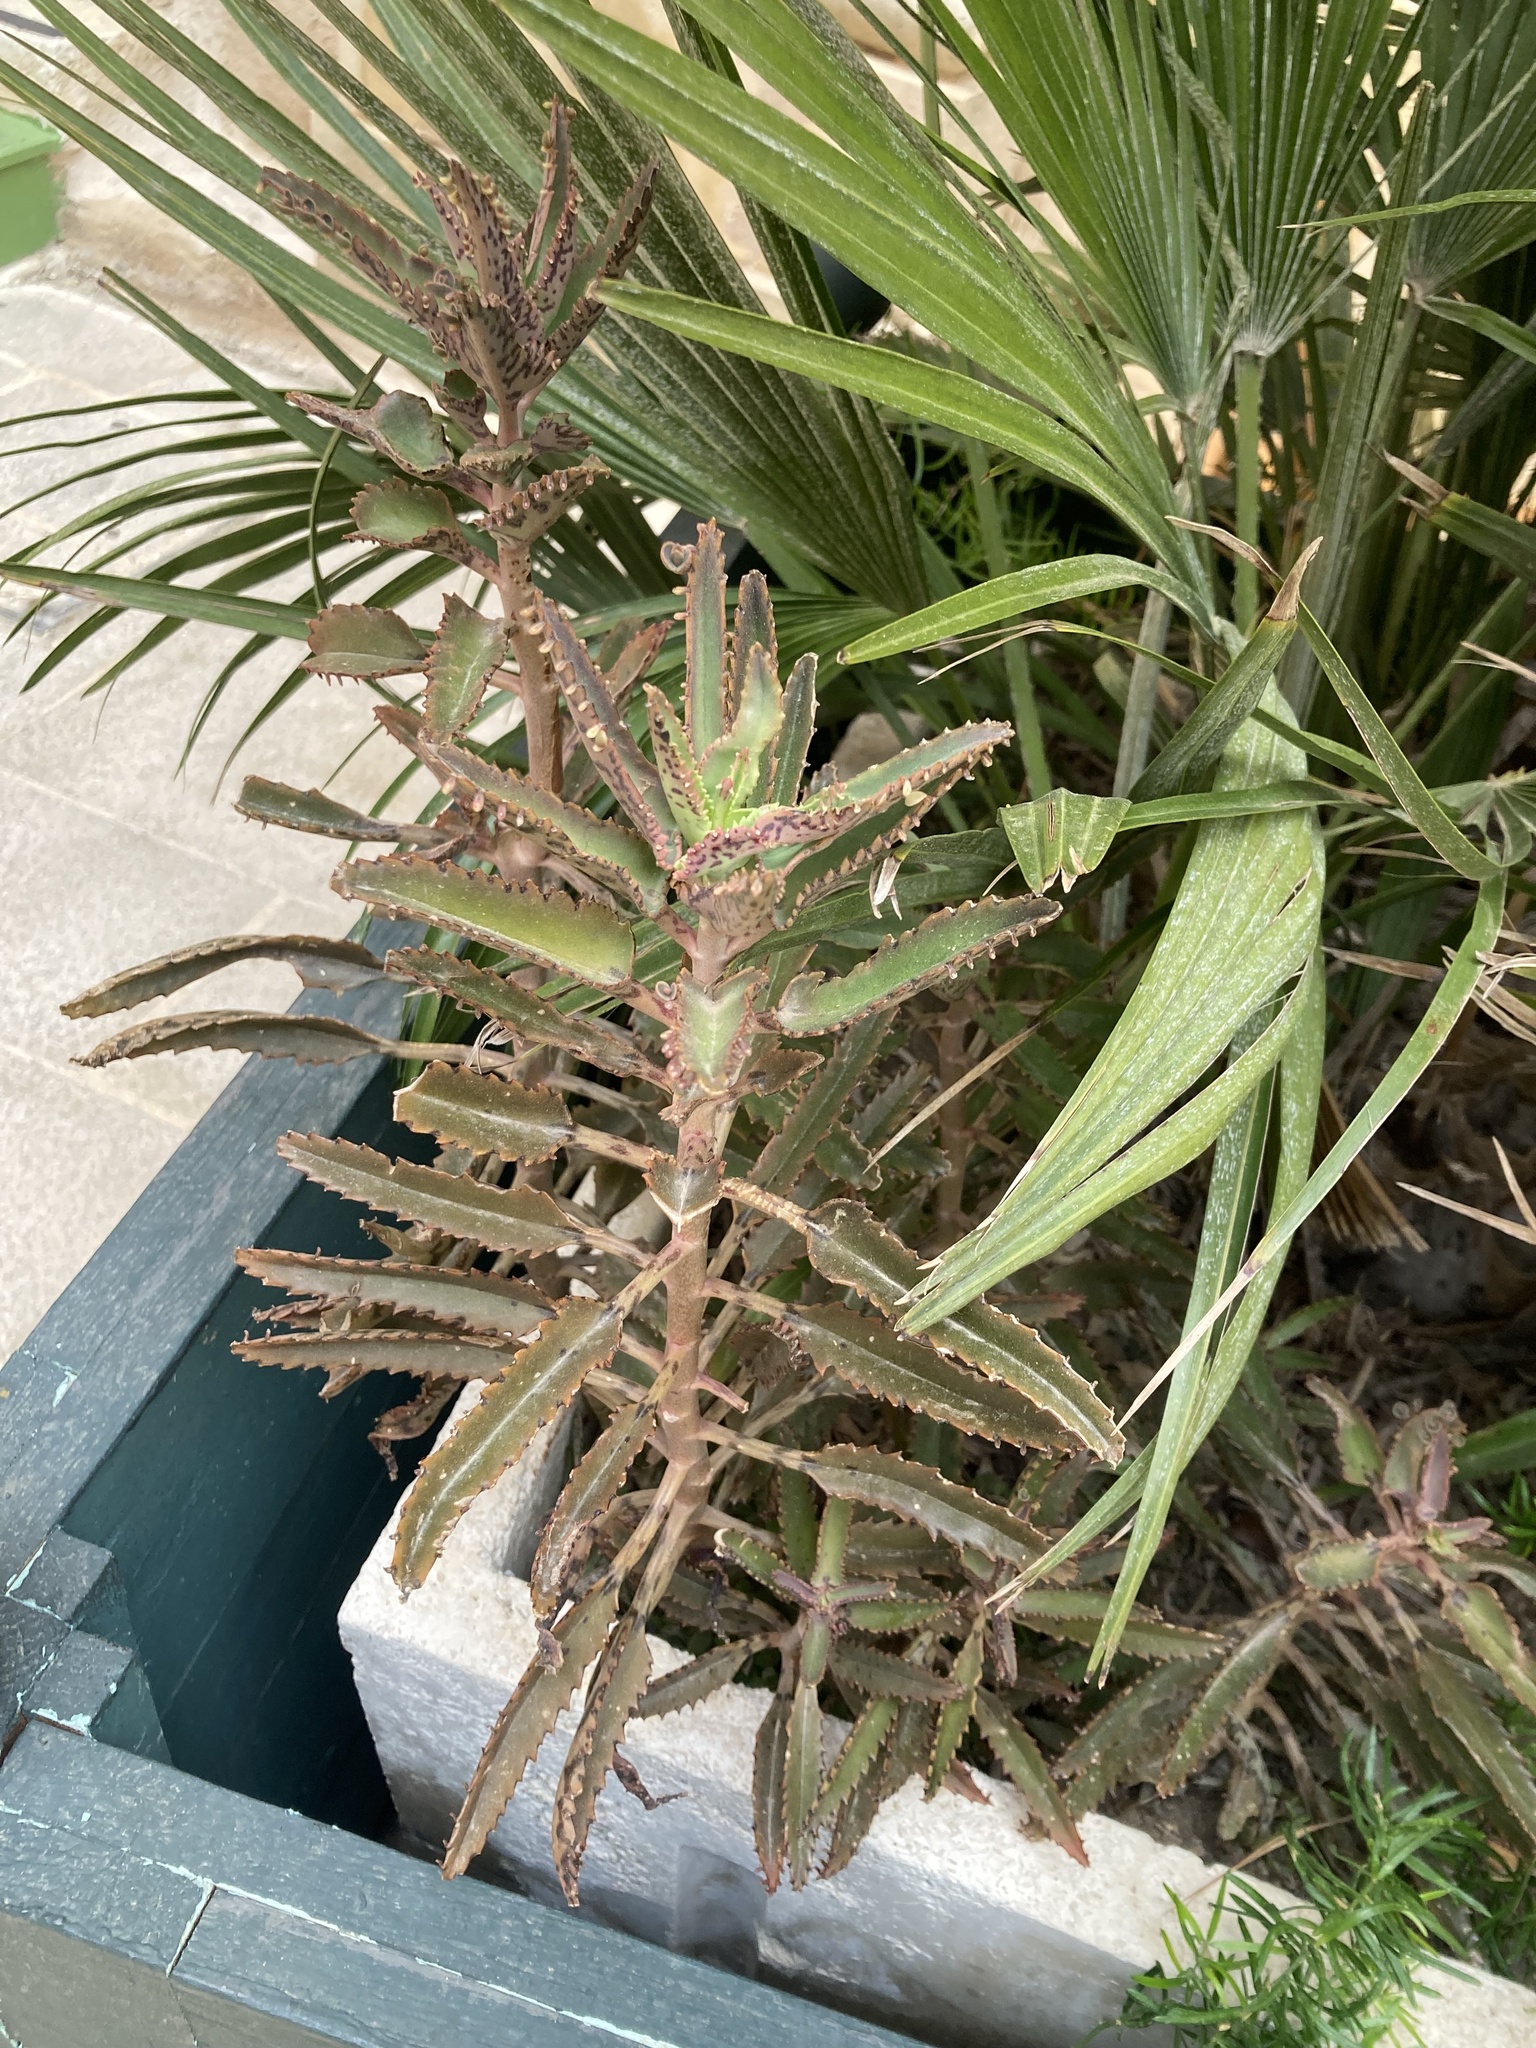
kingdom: Plantae
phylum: Tracheophyta
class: Magnoliopsida
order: Saxifragales
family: Crassulaceae
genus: Kalanchoe
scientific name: Kalanchoe houghtonii
